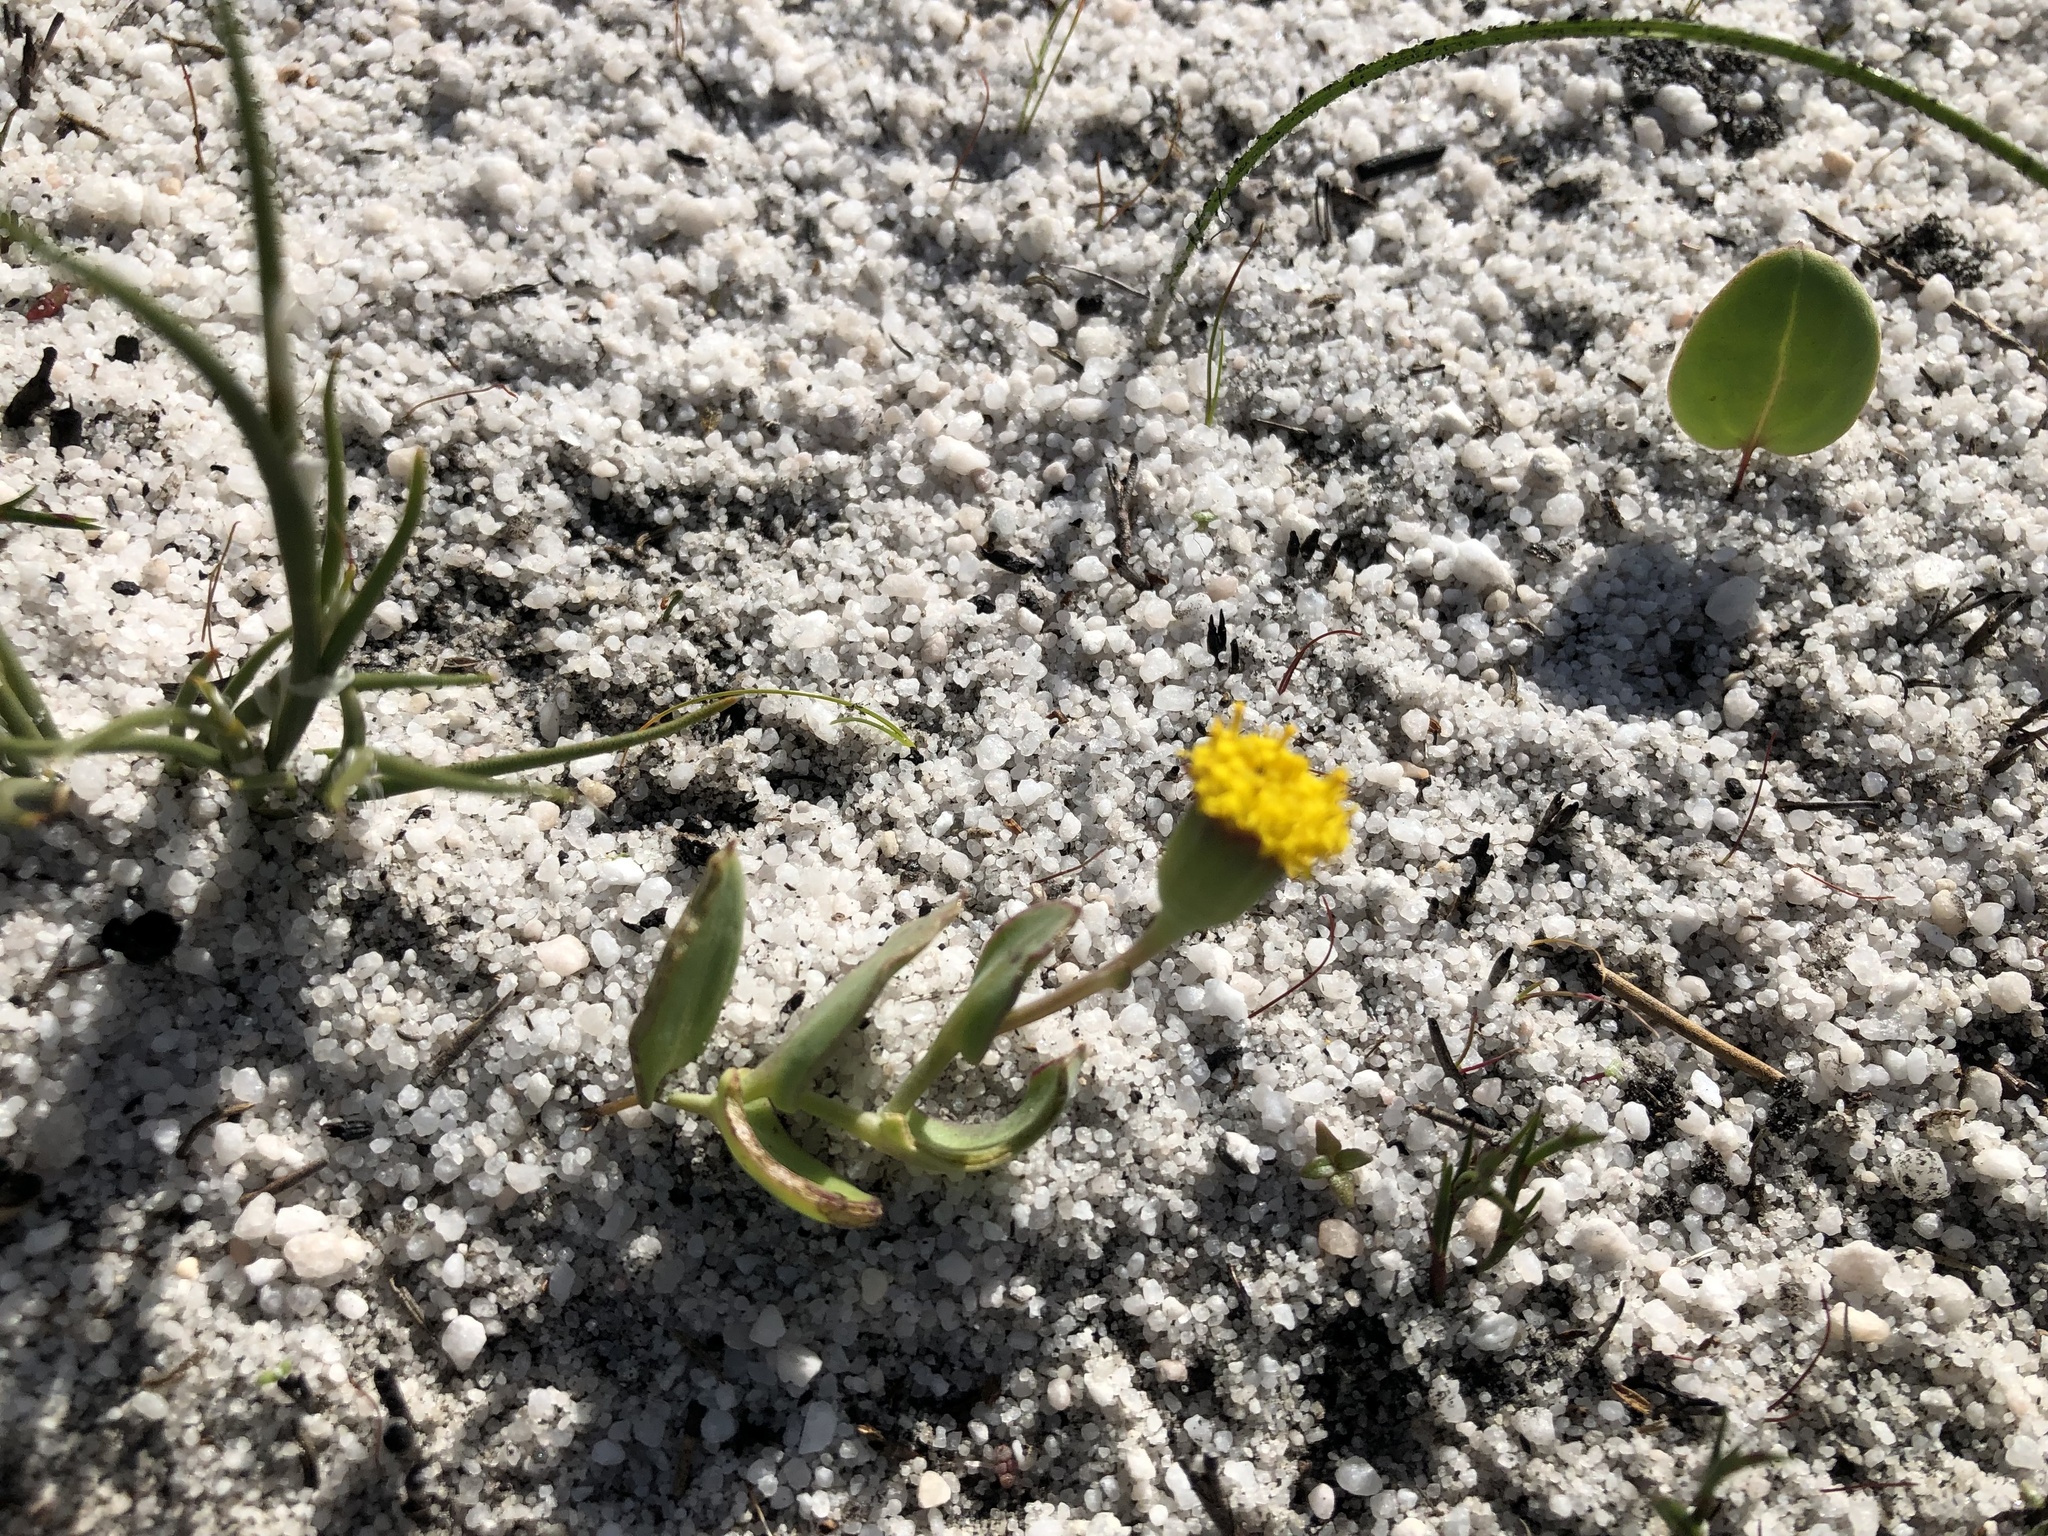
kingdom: Plantae
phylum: Tracheophyta
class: Magnoliopsida
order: Asterales
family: Asteraceae
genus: Othonna
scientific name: Othonna undulosa
